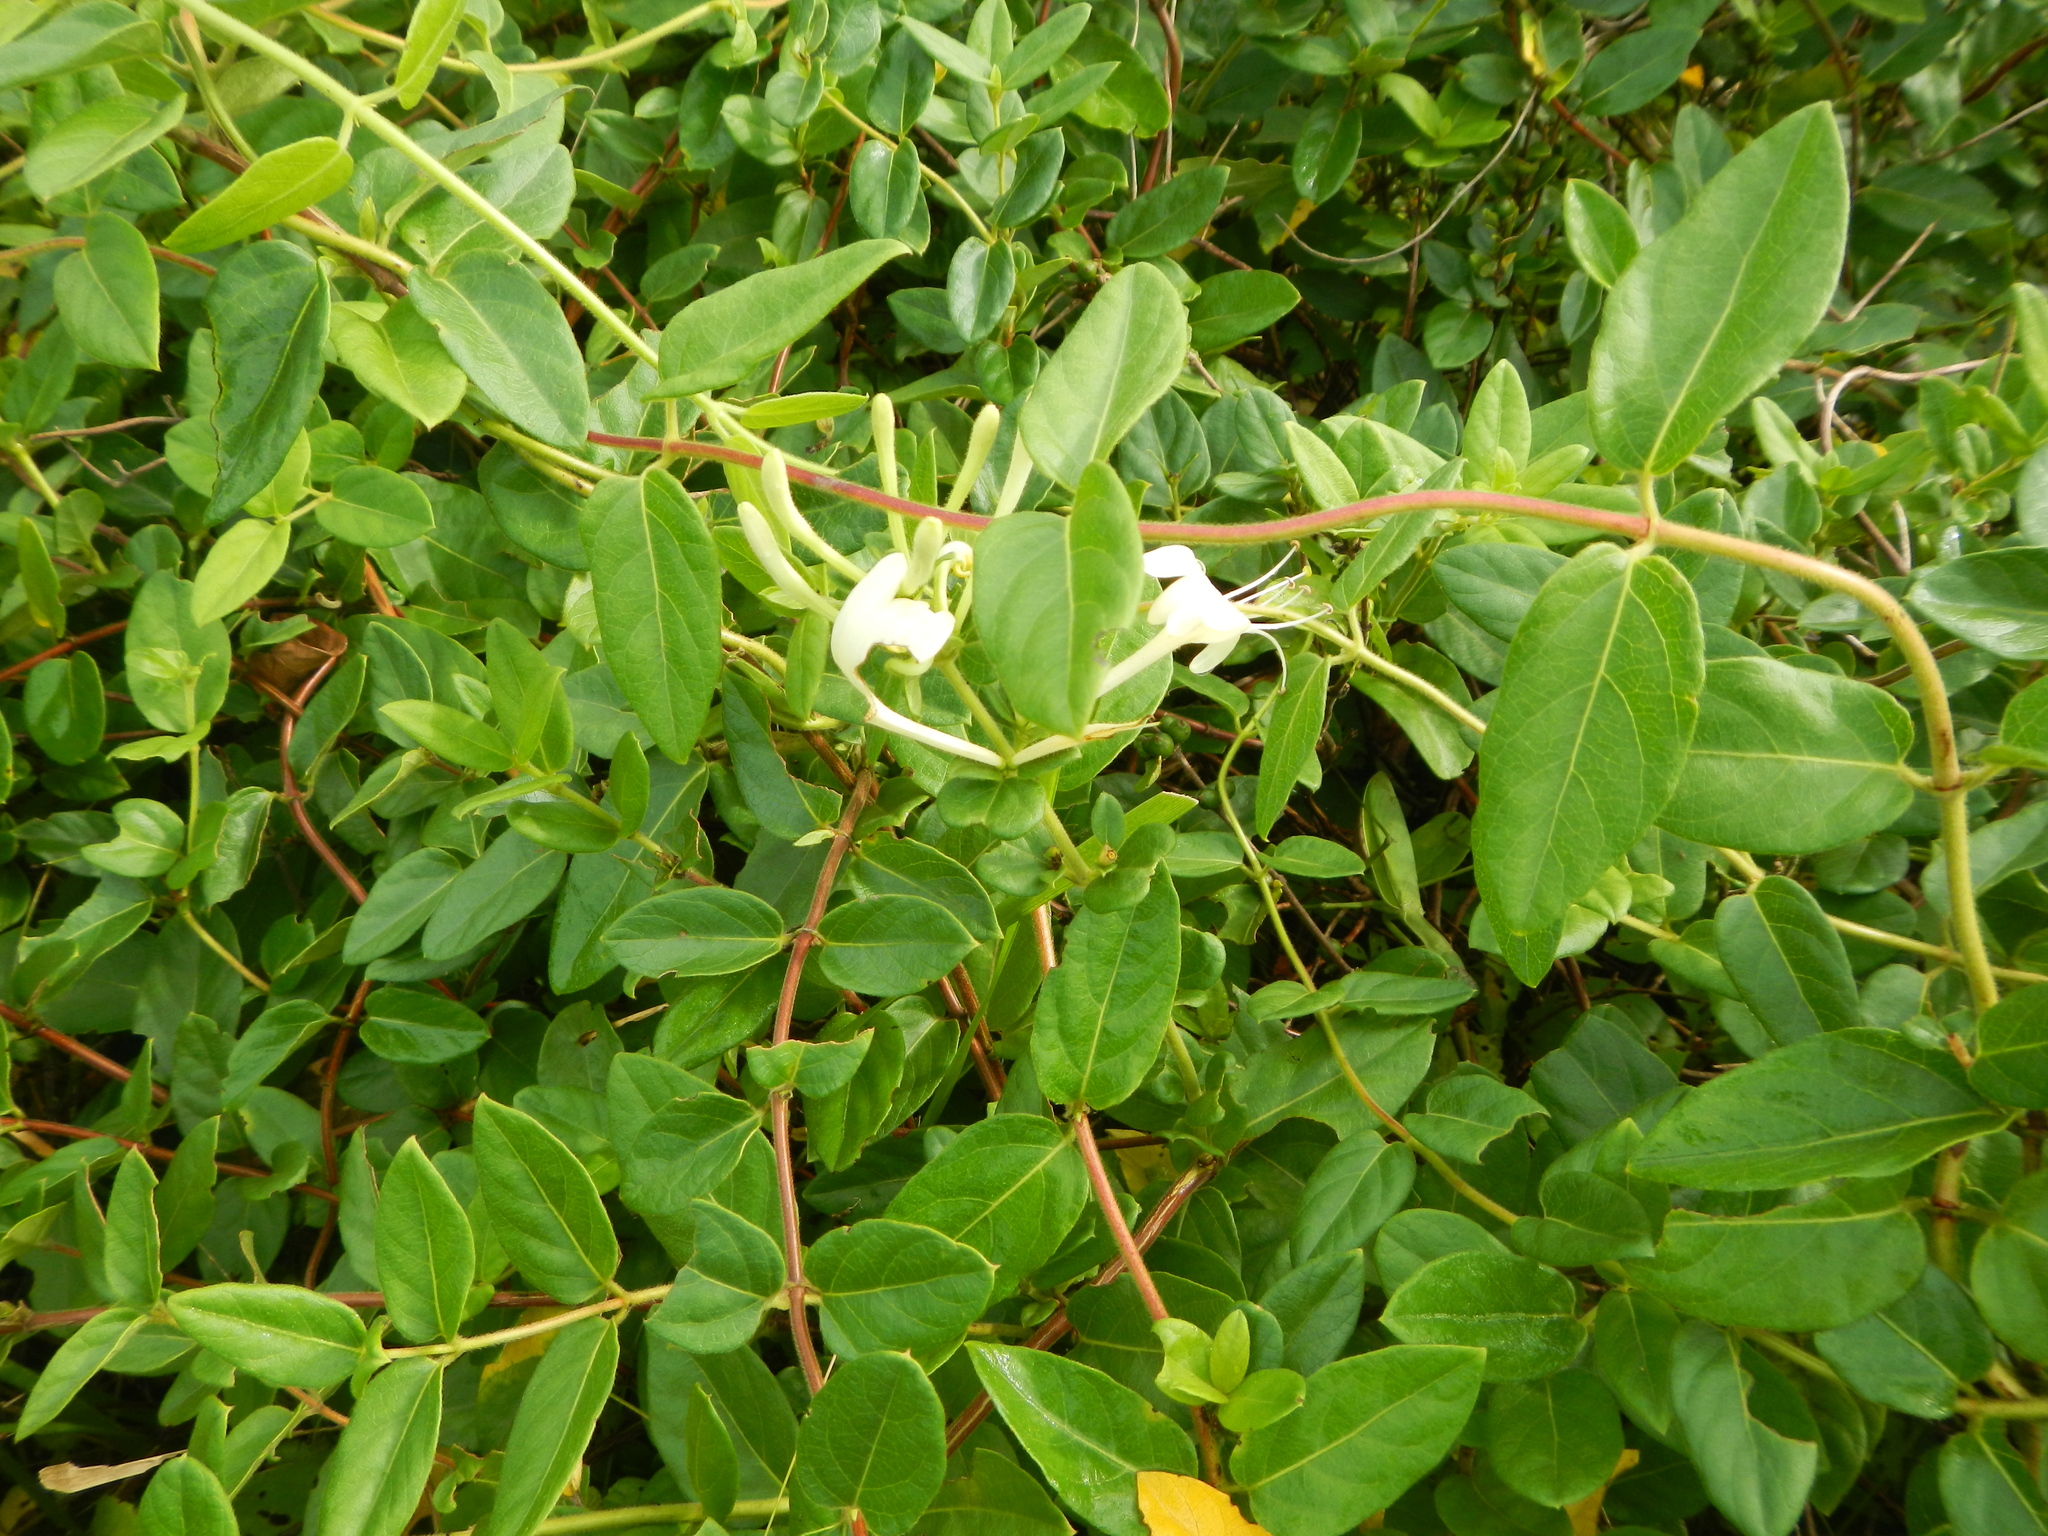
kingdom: Plantae
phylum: Tracheophyta
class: Magnoliopsida
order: Dipsacales
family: Caprifoliaceae
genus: Lonicera
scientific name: Lonicera japonica
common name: Japanese honeysuckle
